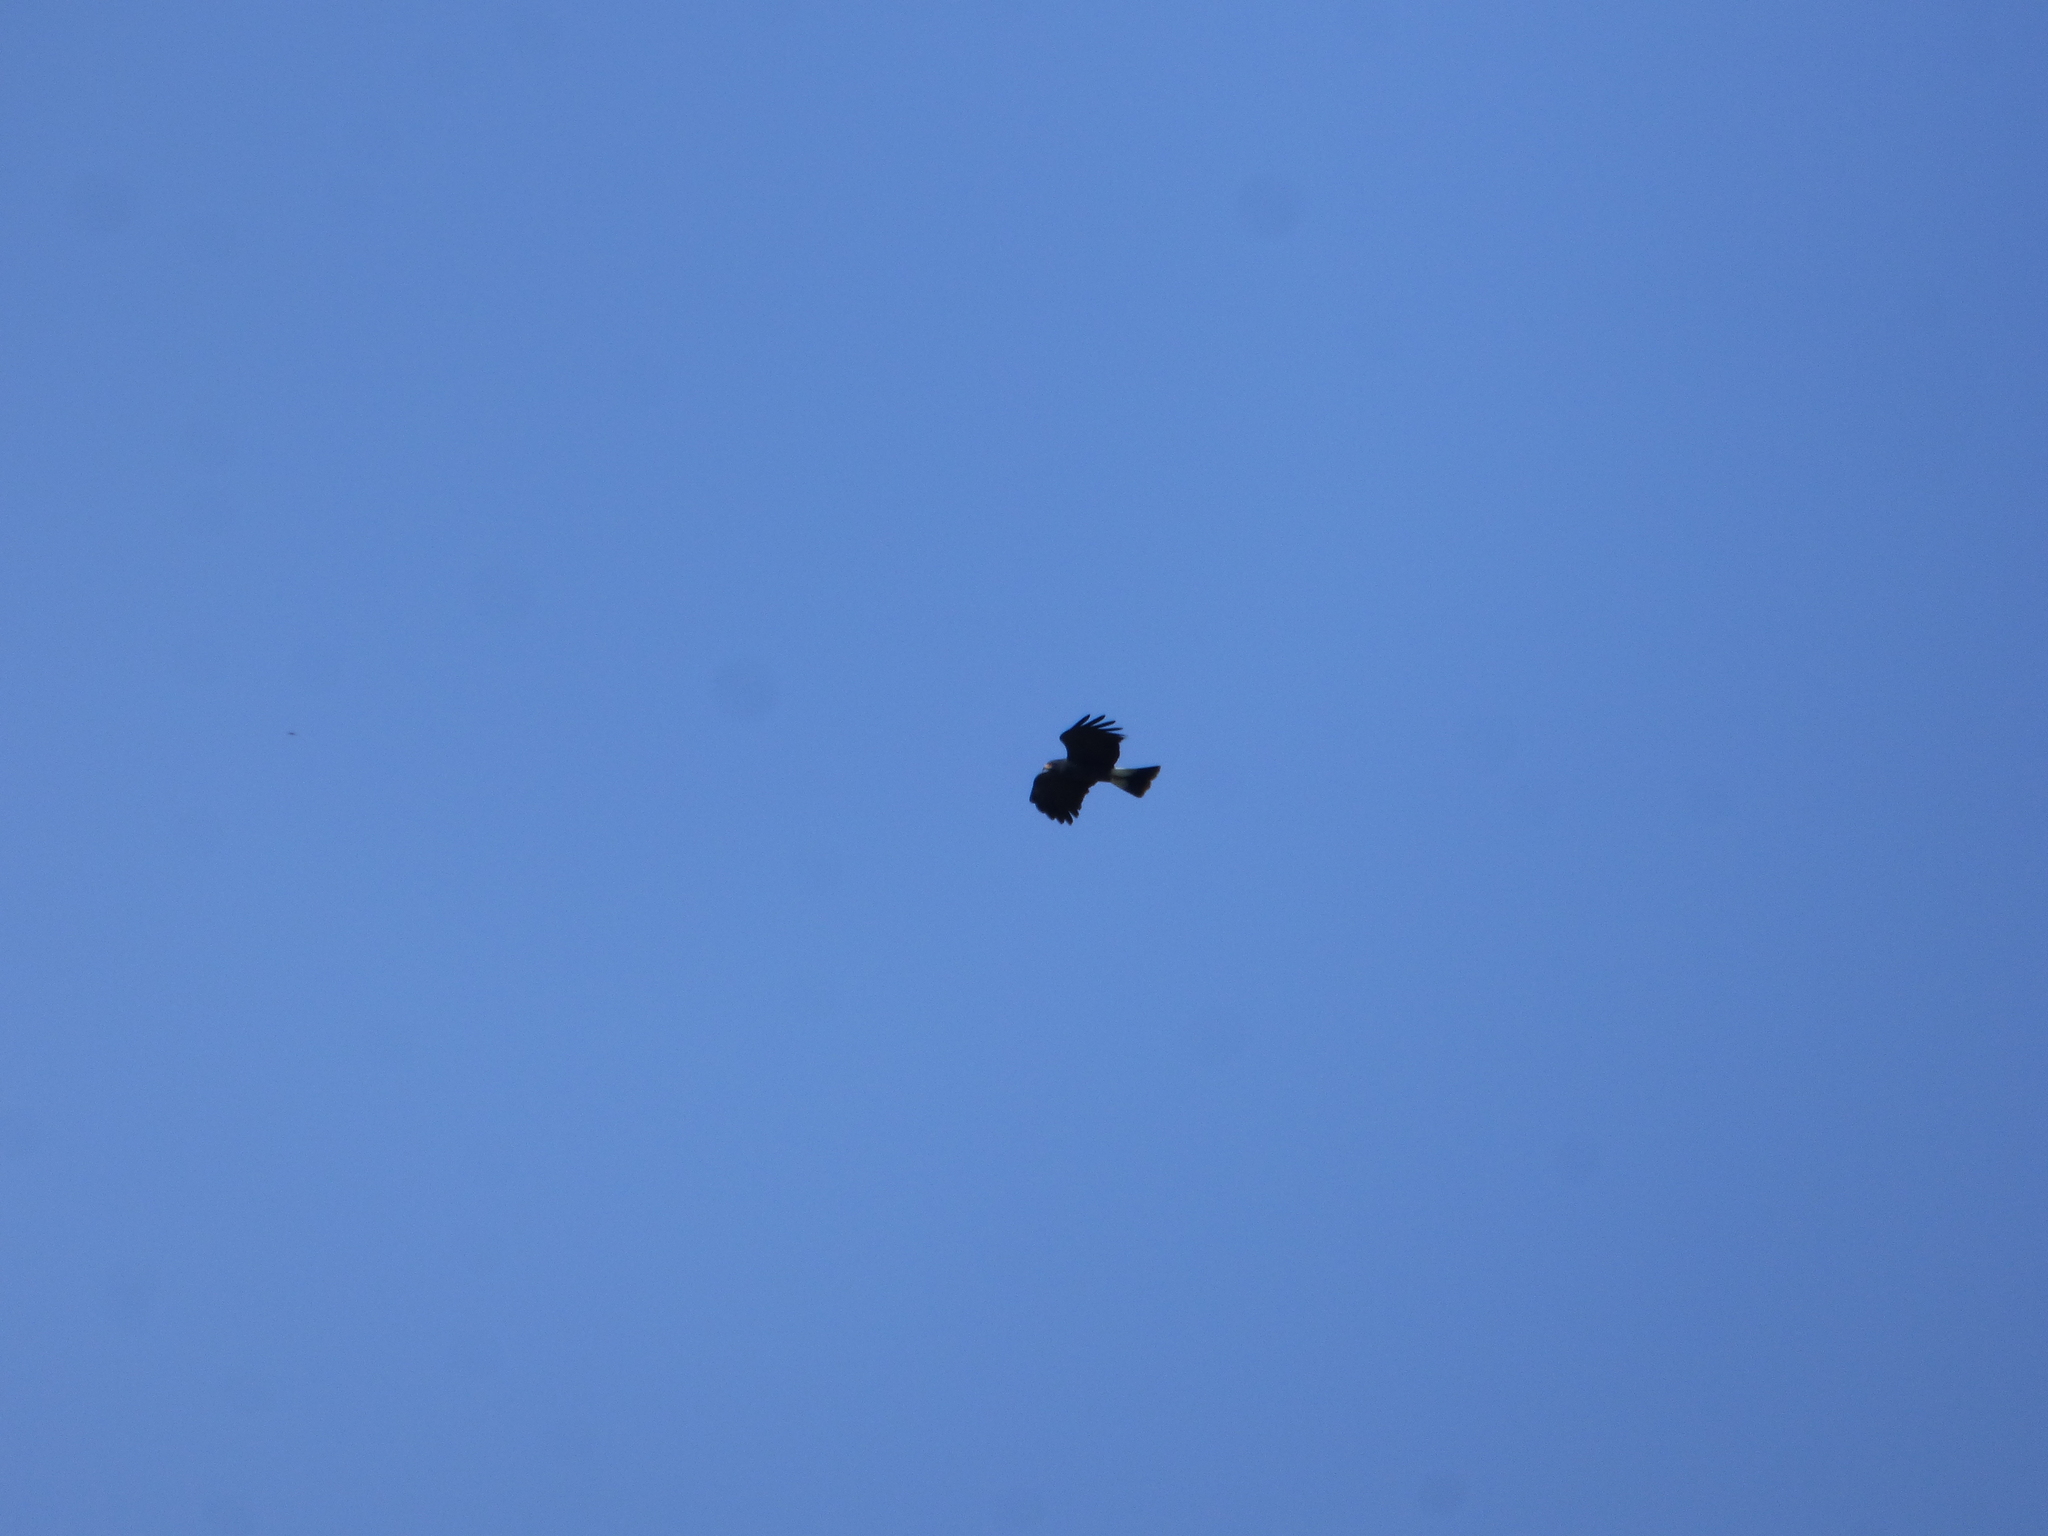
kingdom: Animalia
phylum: Chordata
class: Aves
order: Accipitriformes
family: Accipitridae
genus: Rostrhamus
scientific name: Rostrhamus sociabilis
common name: Snail kite
